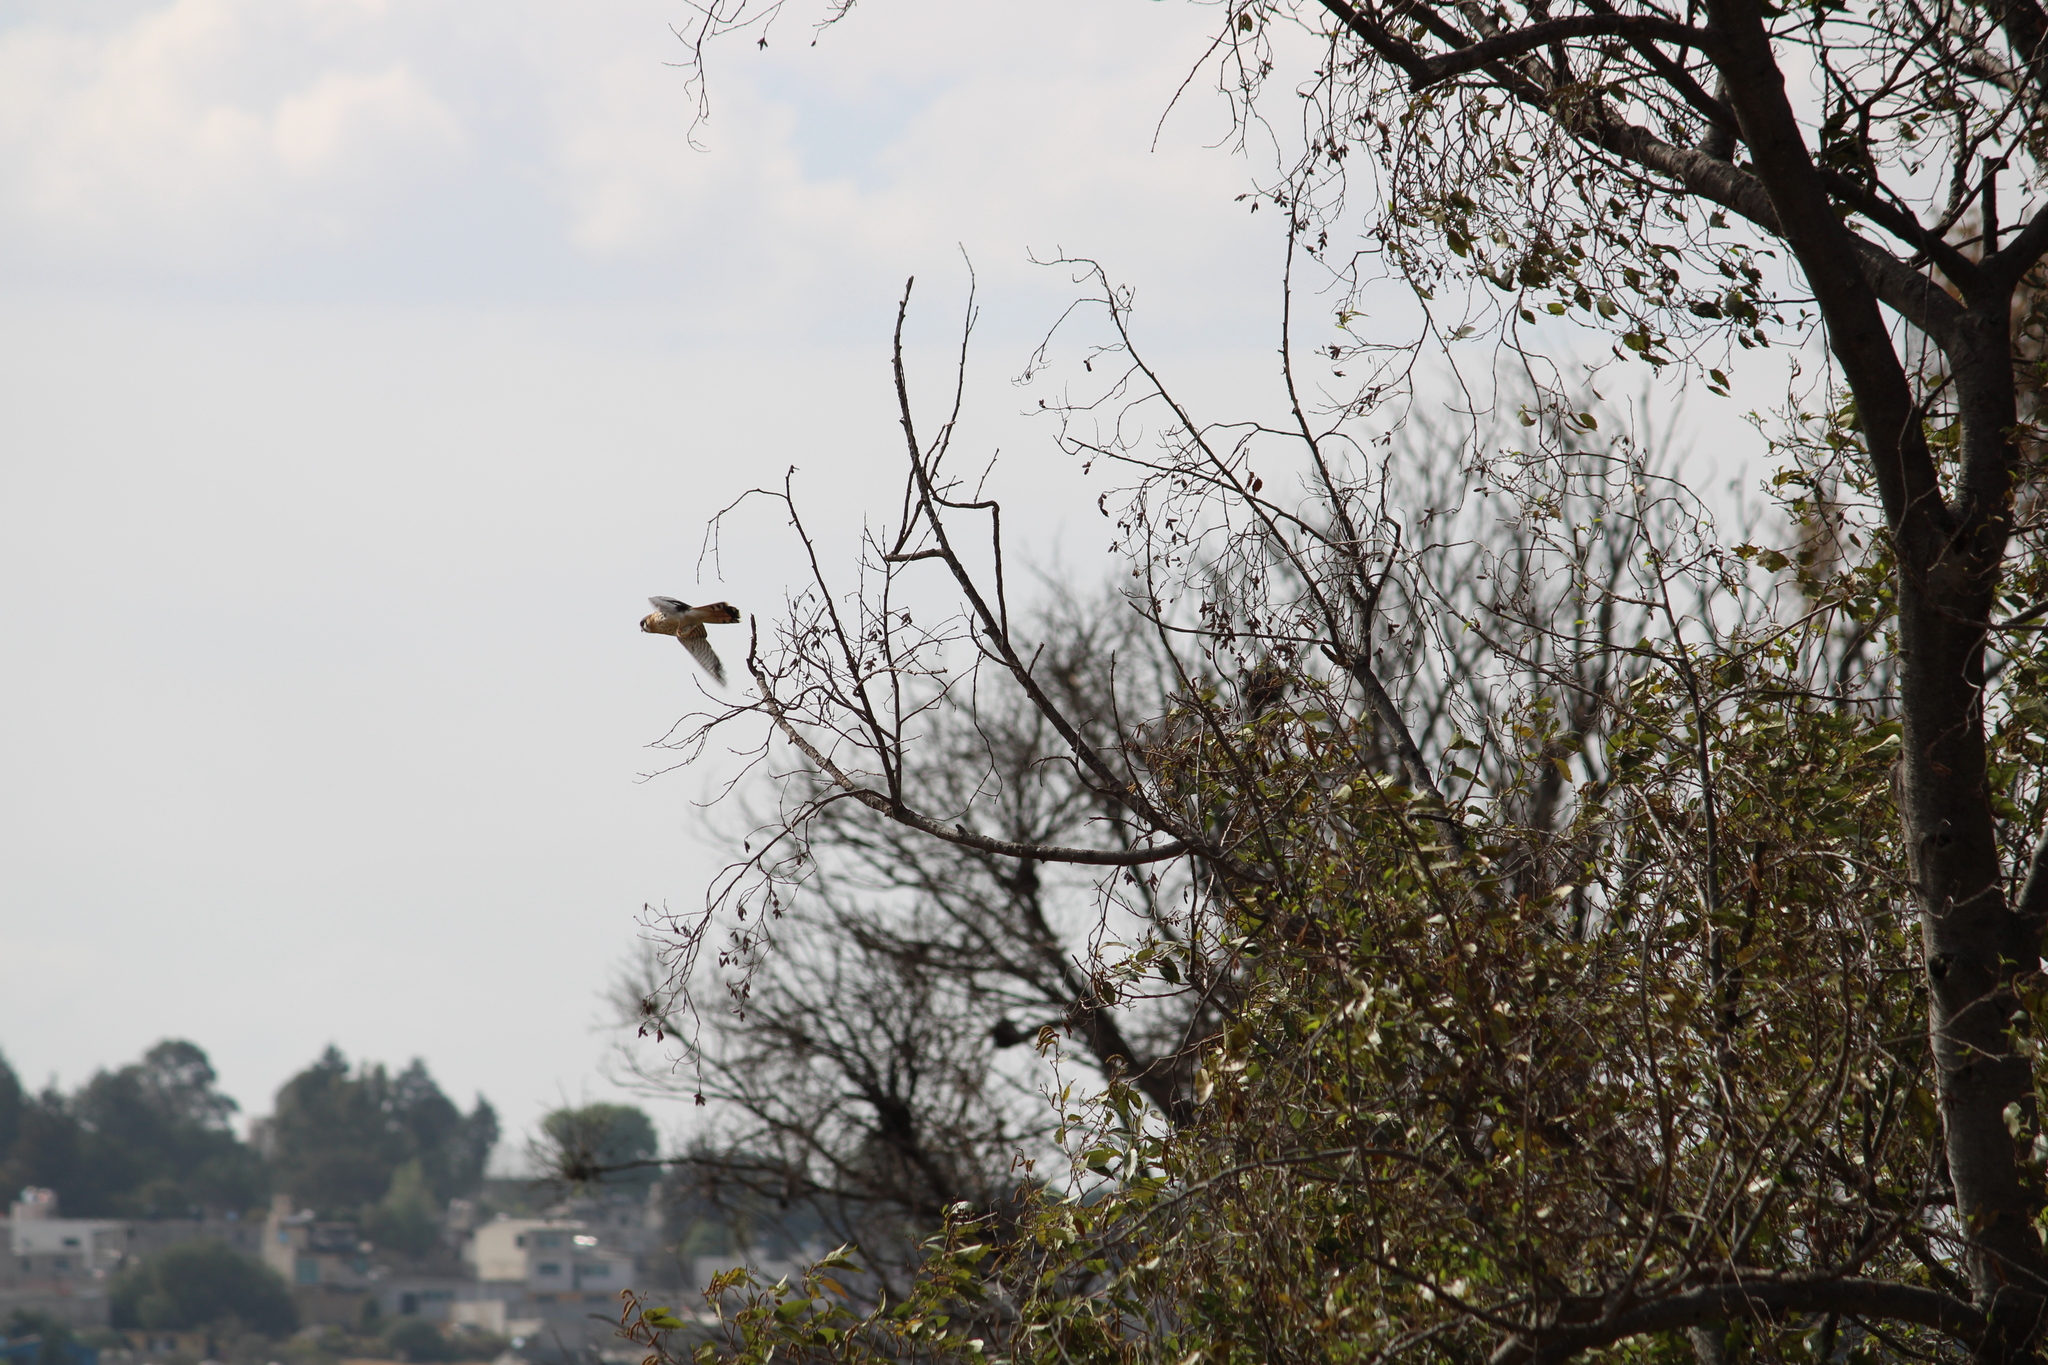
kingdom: Animalia
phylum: Chordata
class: Aves
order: Falconiformes
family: Falconidae
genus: Falco
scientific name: Falco sparverius
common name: American kestrel
